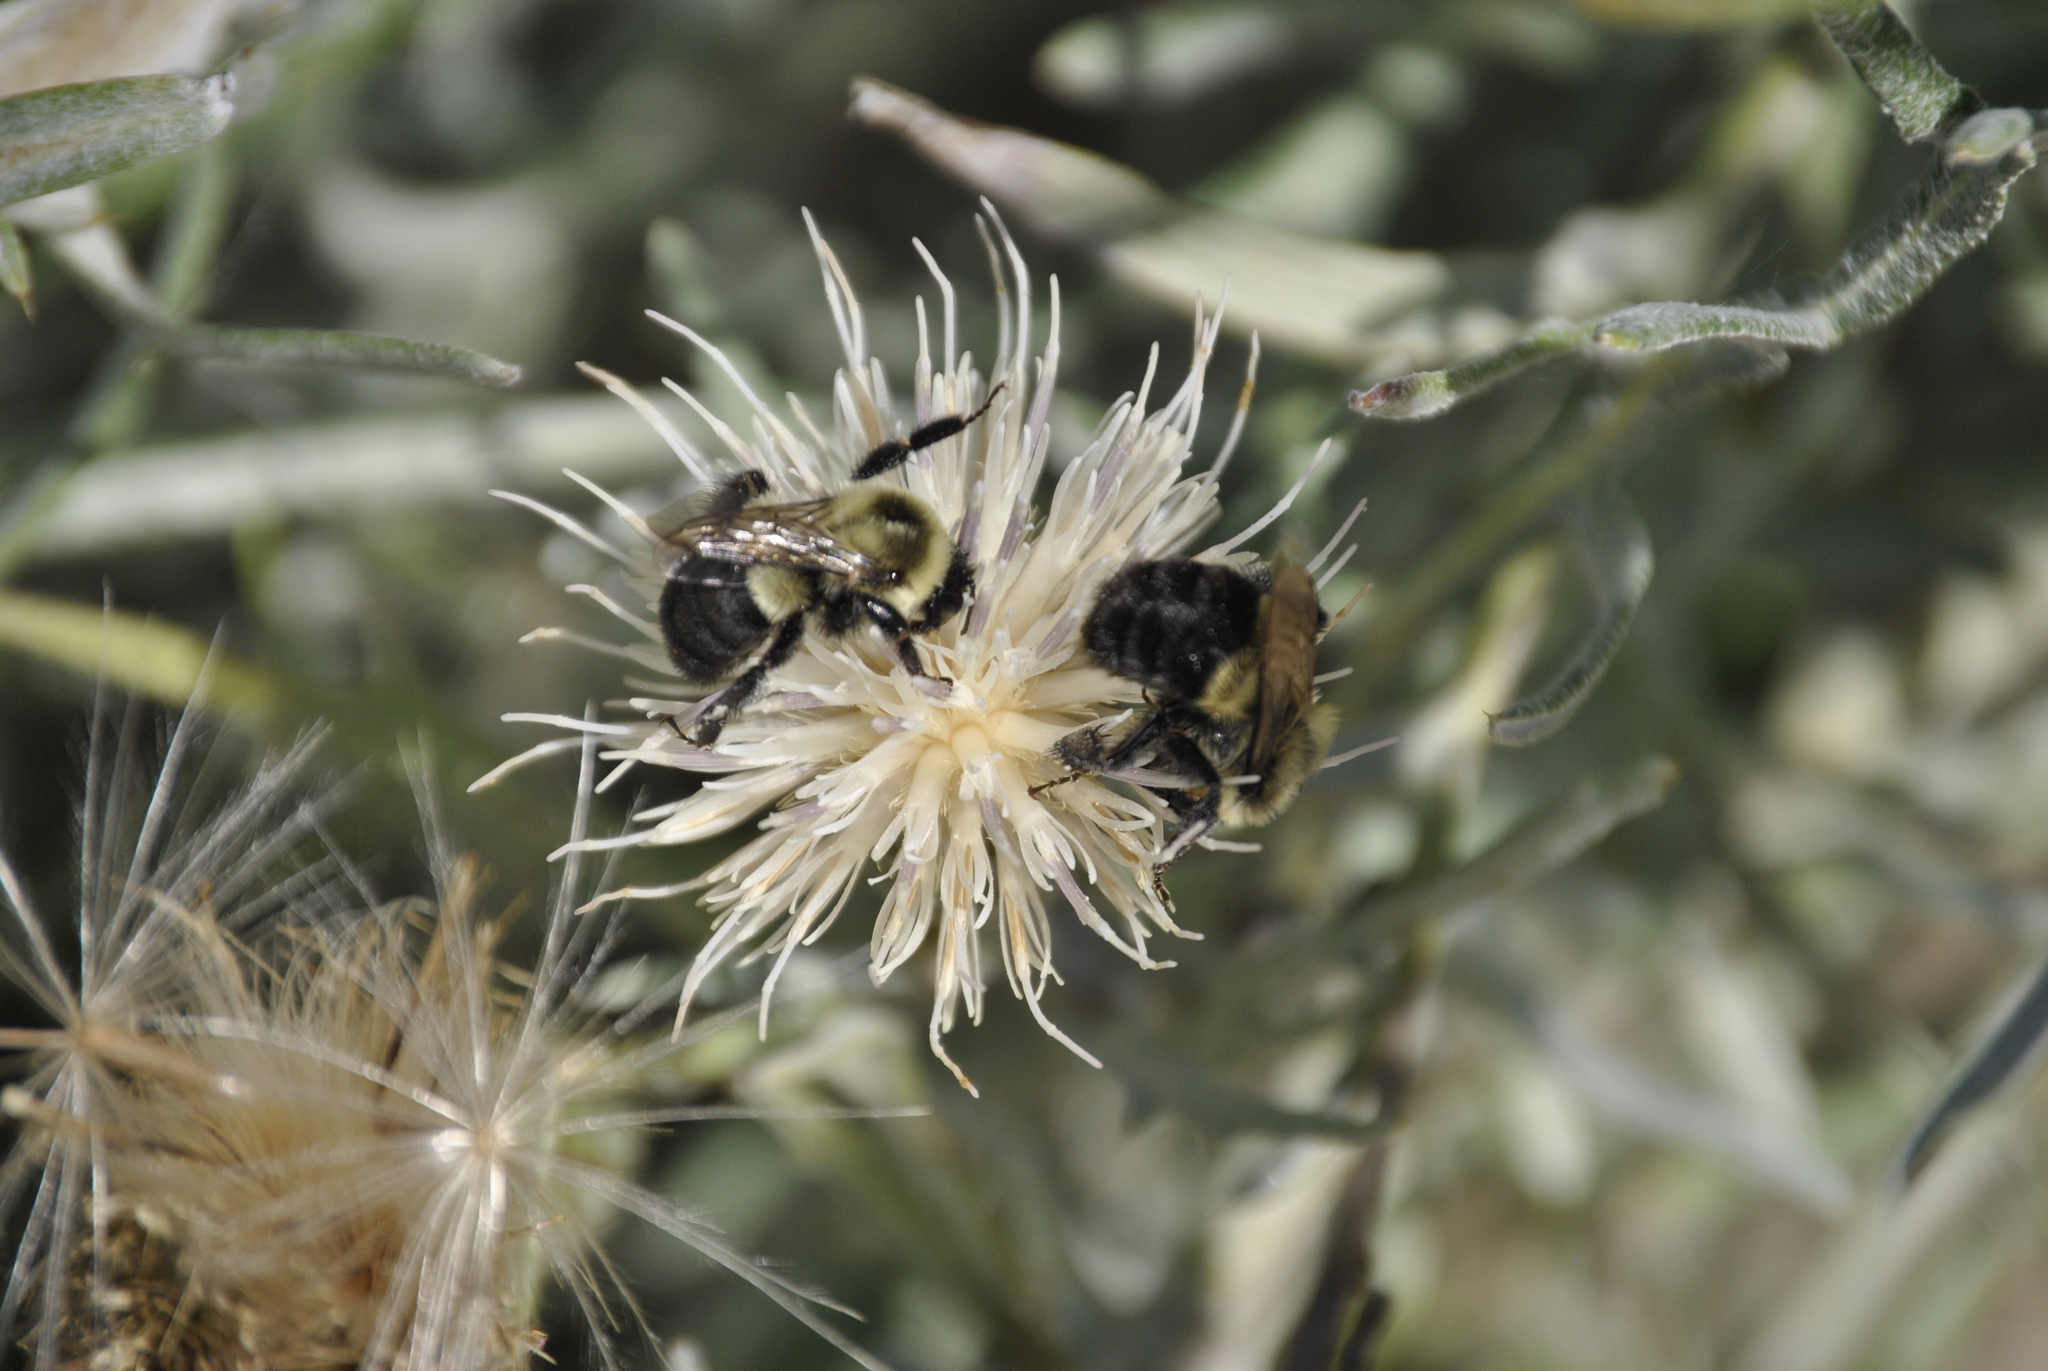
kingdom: Animalia
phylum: Arthropoda
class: Insecta
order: Hymenoptera
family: Apidae
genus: Bombus
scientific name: Bombus impatiens
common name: Common eastern bumble bee
